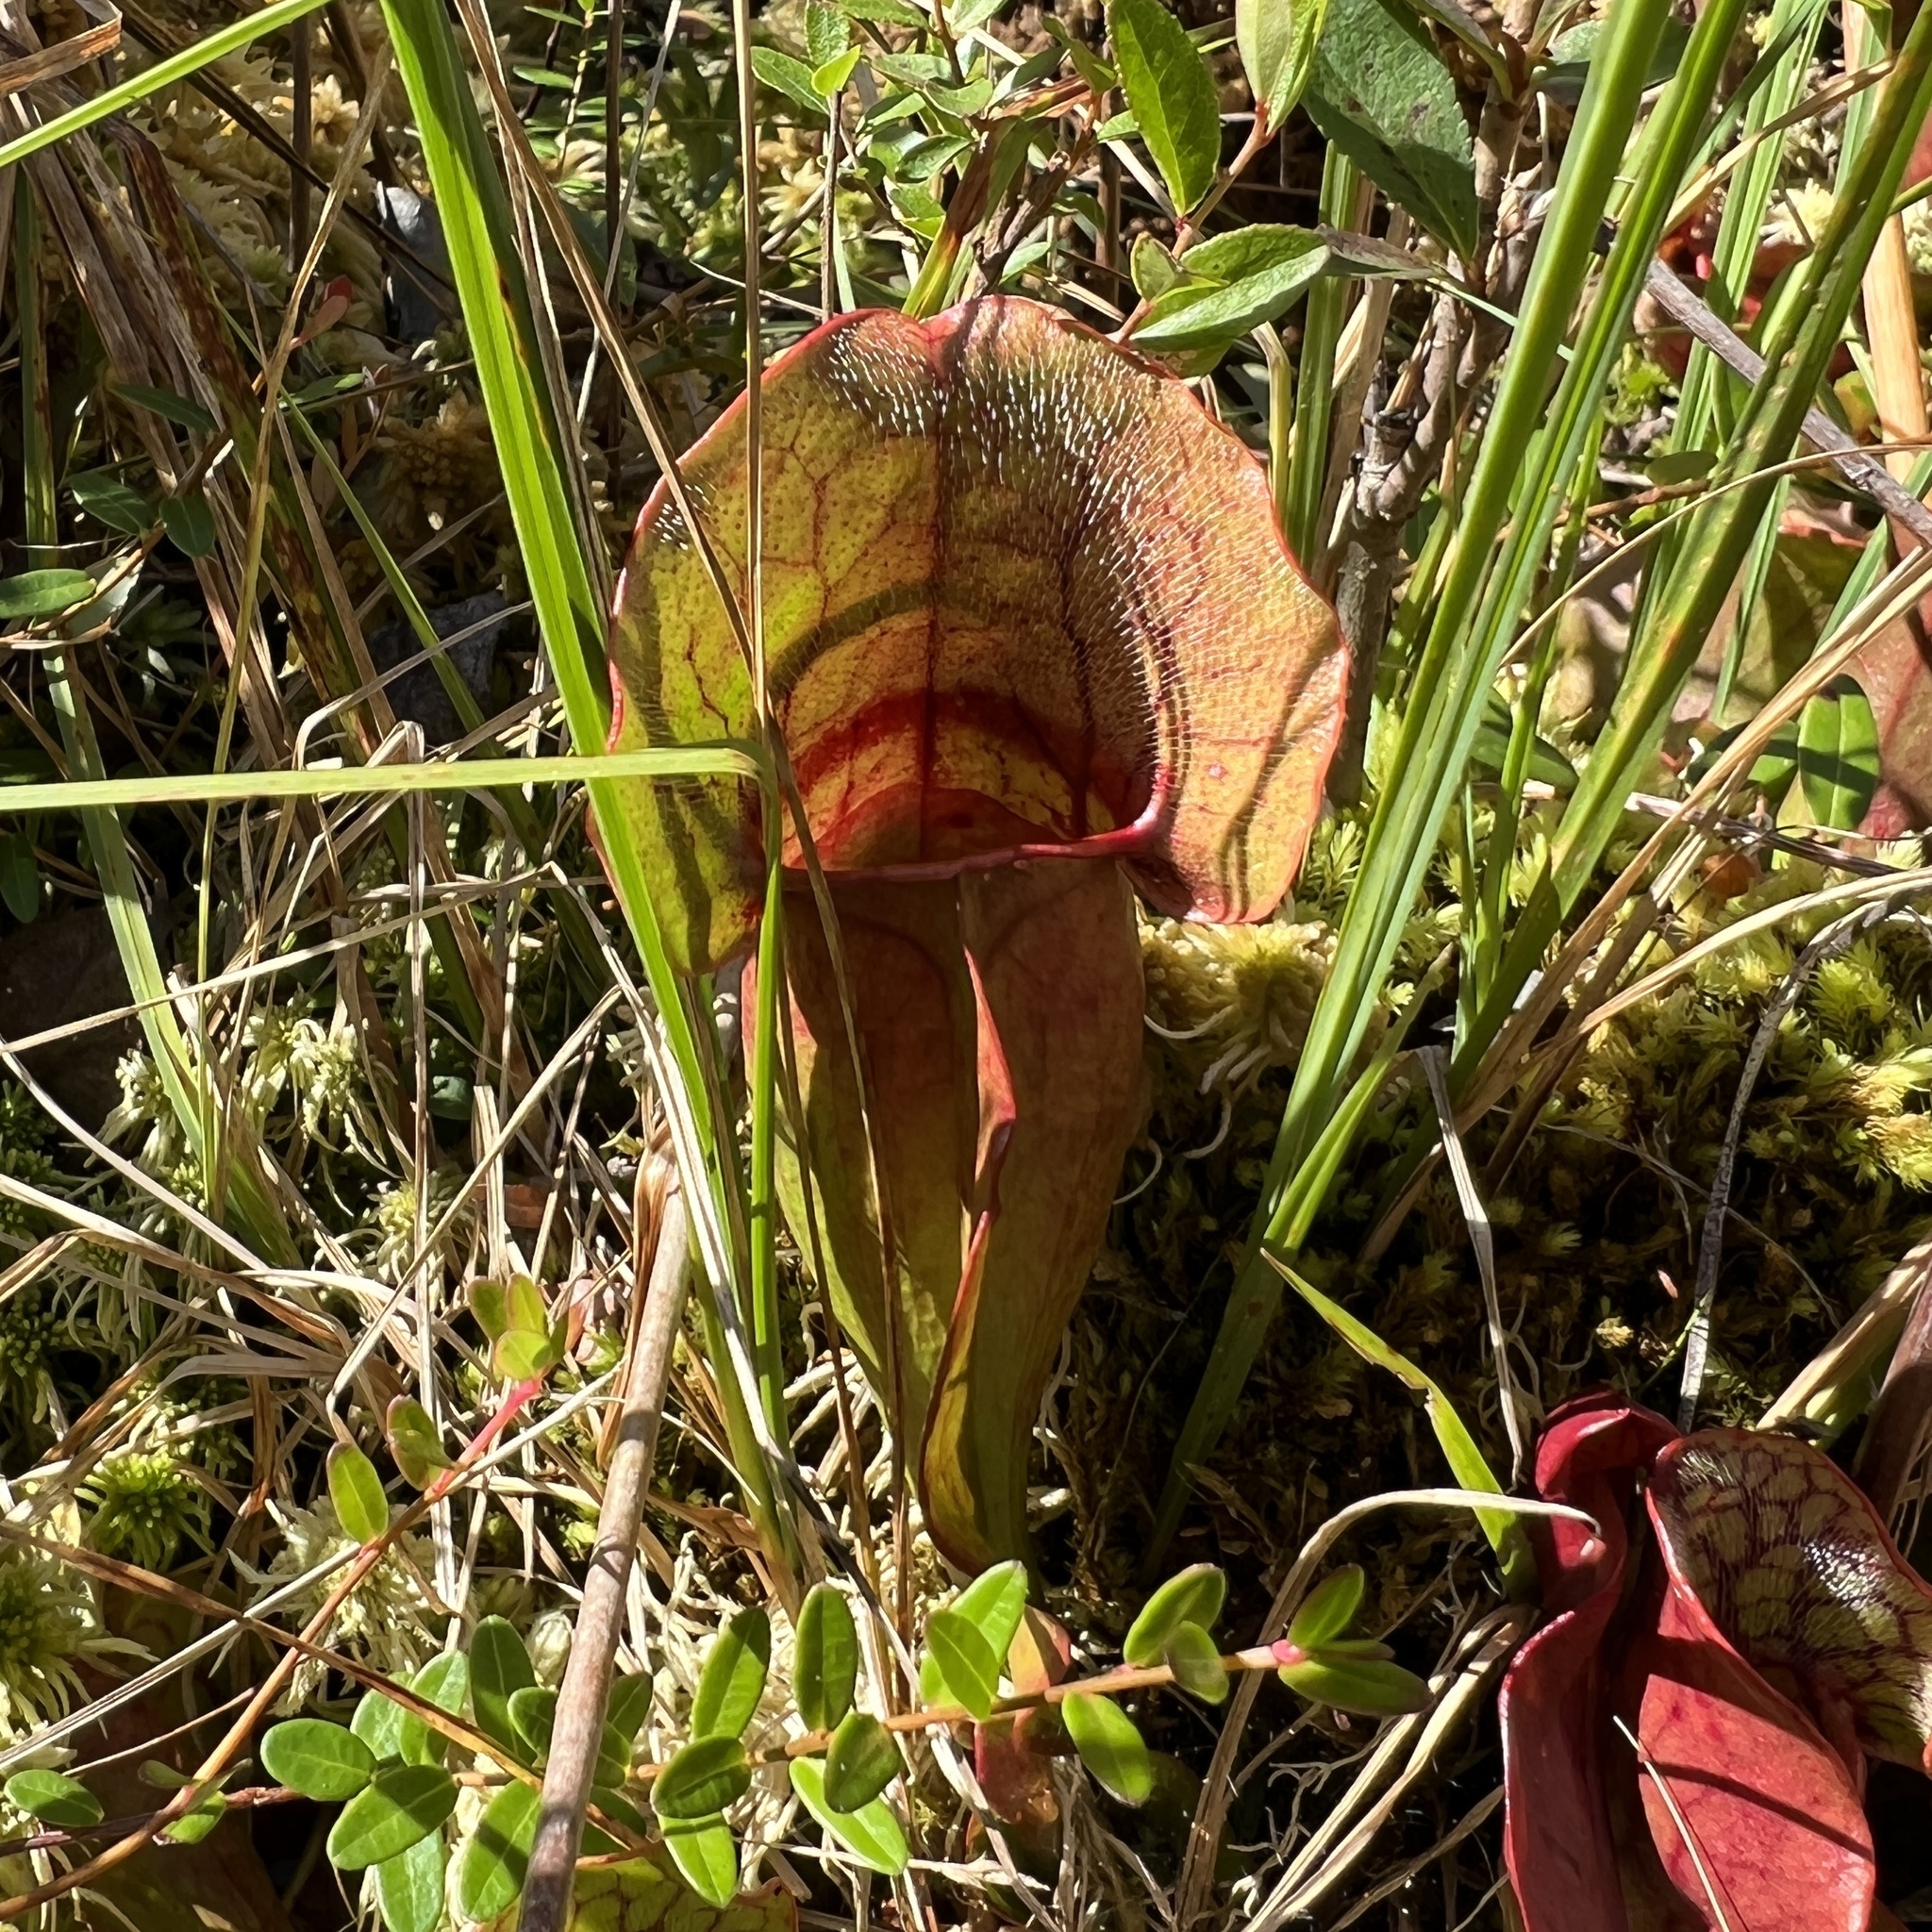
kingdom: Plantae
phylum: Tracheophyta
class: Magnoliopsida
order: Ericales
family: Sarraceniaceae
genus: Sarracenia
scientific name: Sarracenia purpurea
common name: Pitcherplant
